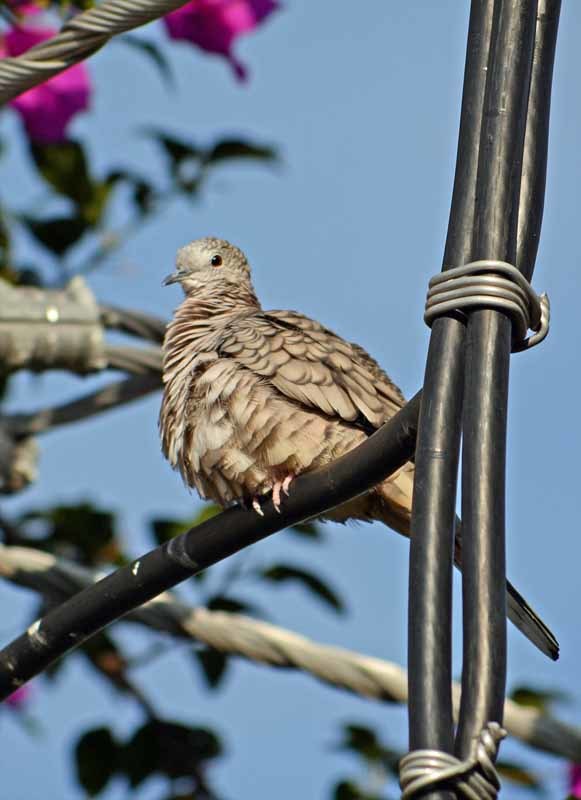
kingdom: Animalia
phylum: Chordata
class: Aves
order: Columbiformes
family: Columbidae
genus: Columbina
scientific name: Columbina inca
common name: Inca dove
